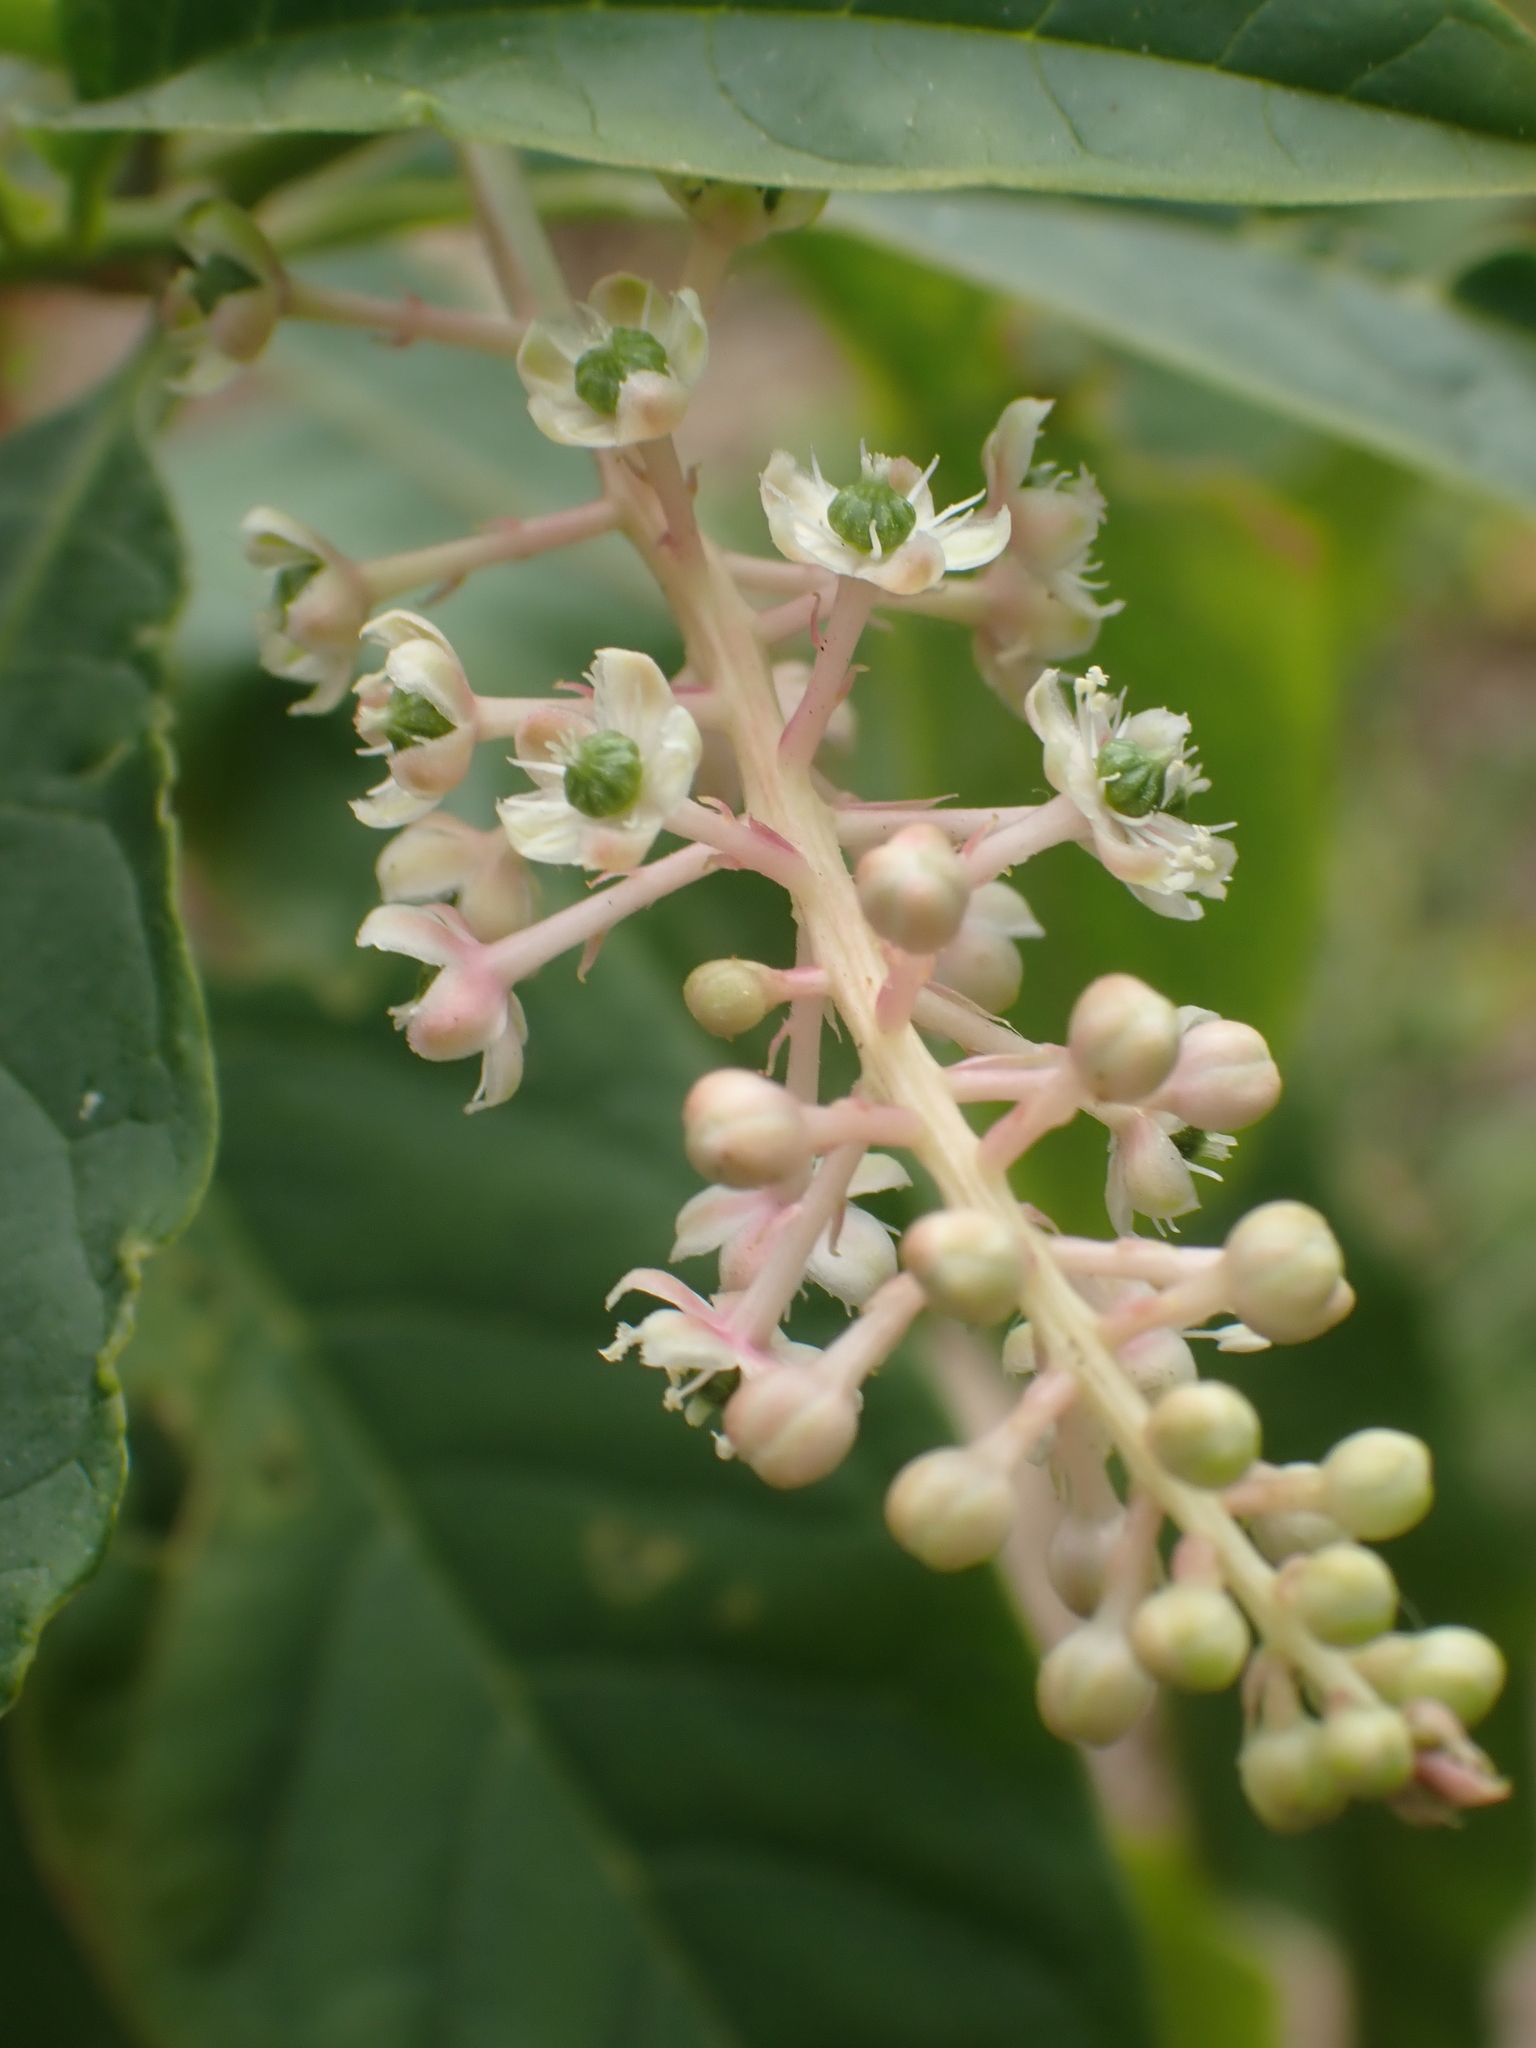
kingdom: Plantae
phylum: Tracheophyta
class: Magnoliopsida
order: Caryophyllales
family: Phytolaccaceae
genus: Phytolacca
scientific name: Phytolacca americana
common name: American pokeweed
